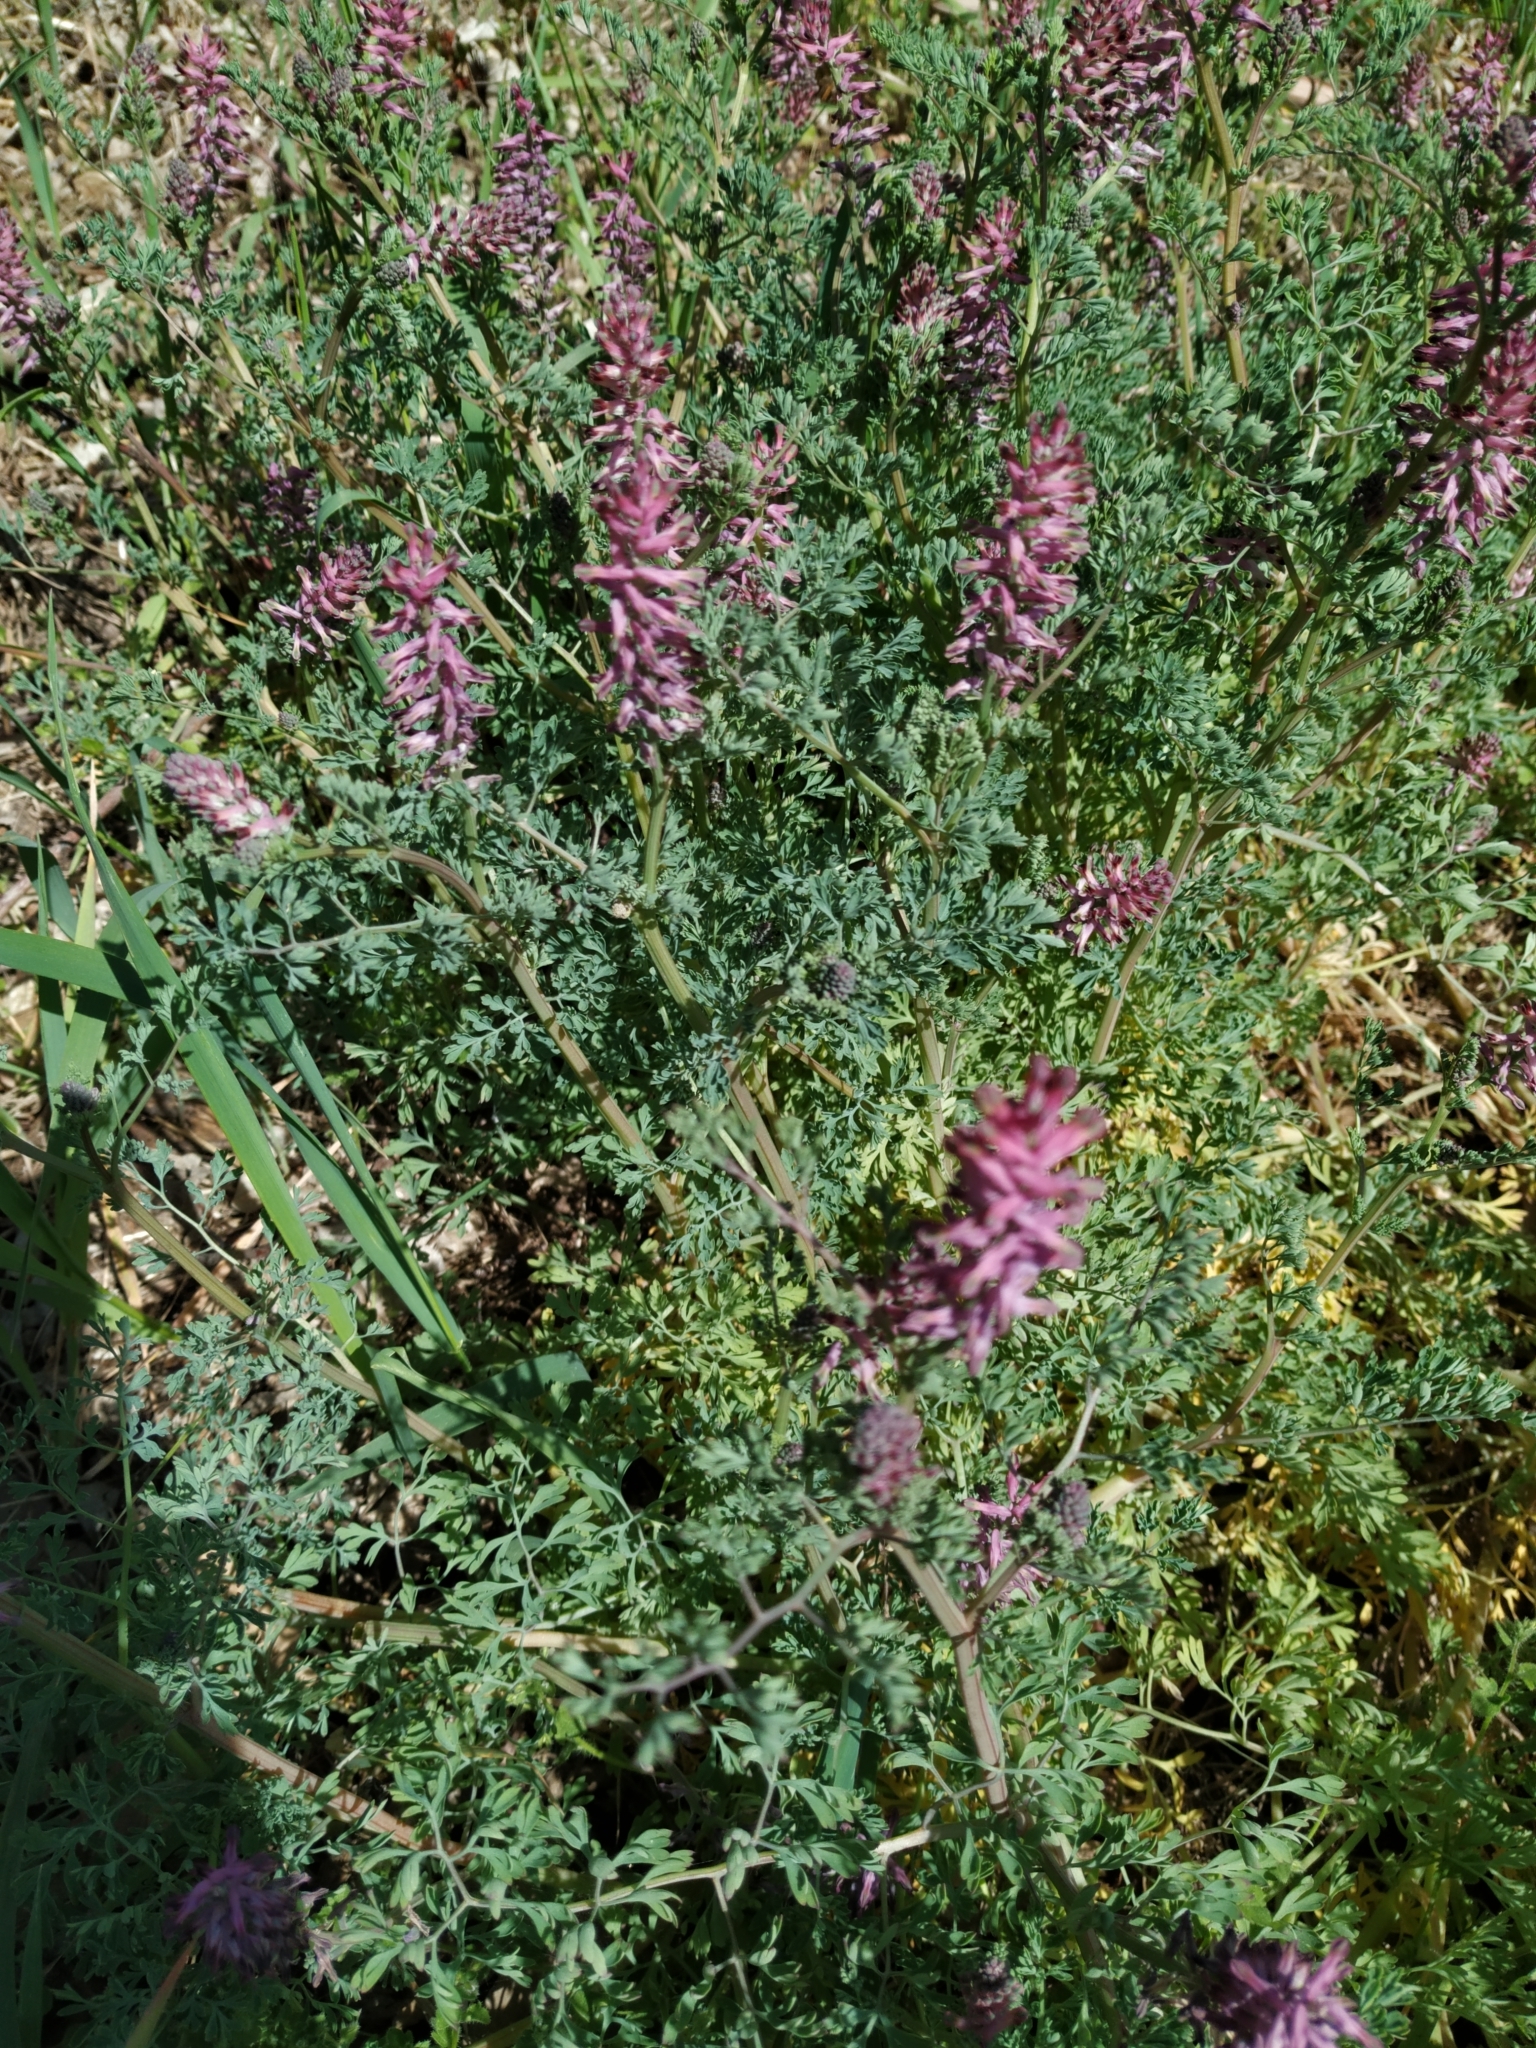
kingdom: Plantae
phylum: Tracheophyta
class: Magnoliopsida
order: Ranunculales
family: Papaveraceae
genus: Fumaria
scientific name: Fumaria officinalis
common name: Common fumitory
